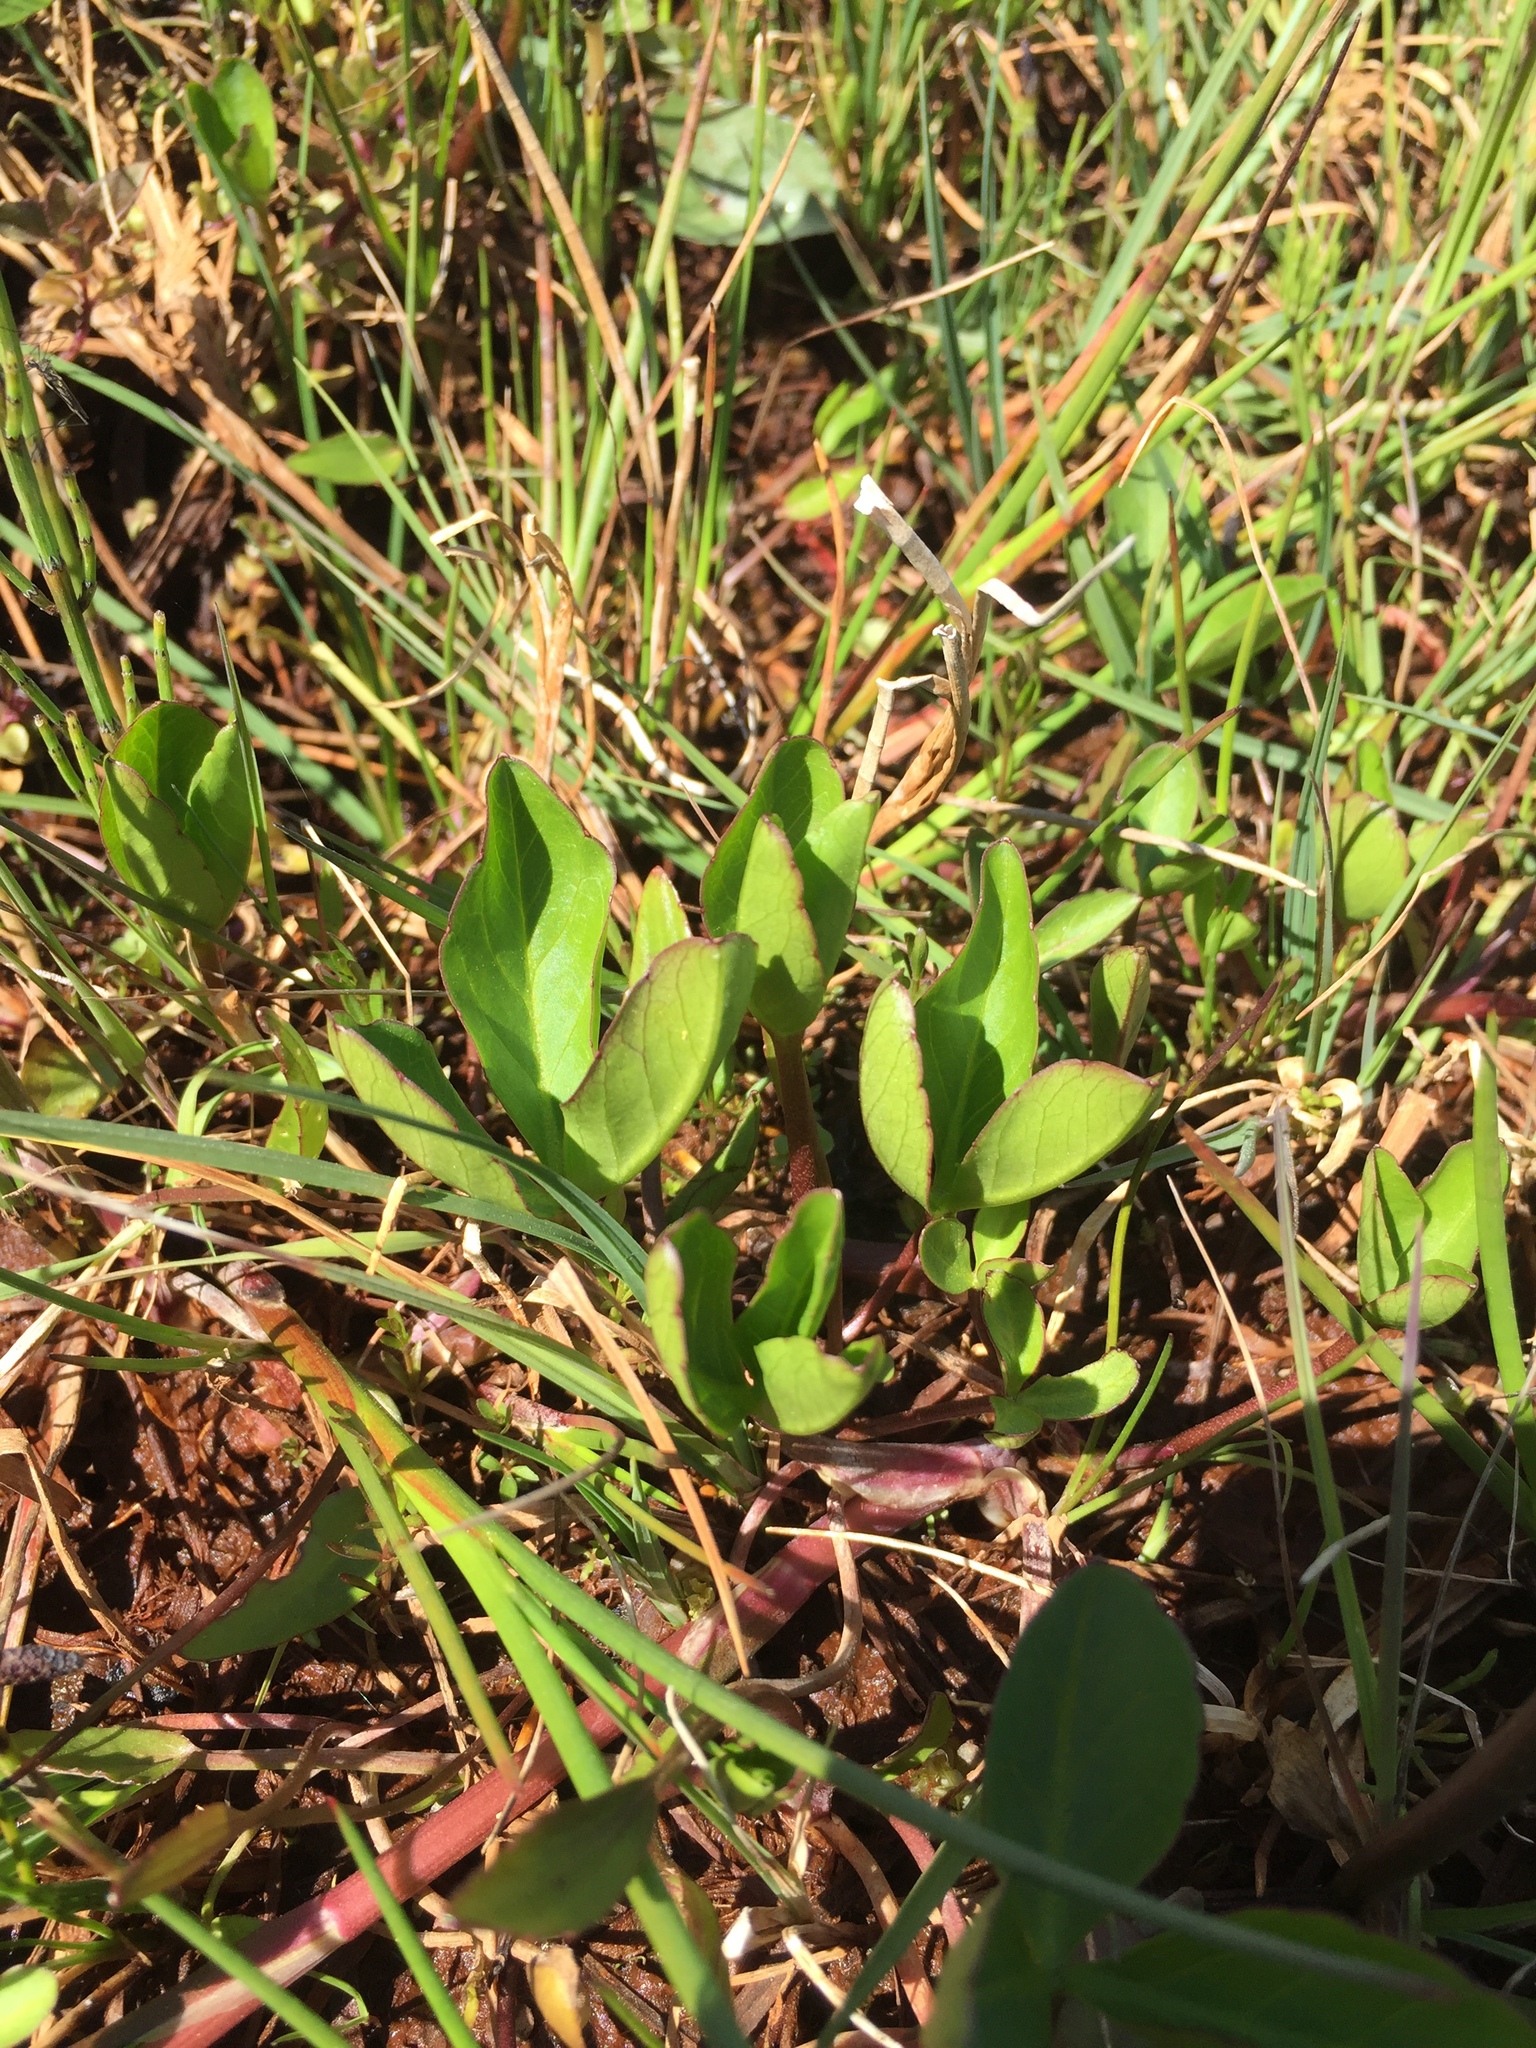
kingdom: Plantae
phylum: Tracheophyta
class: Magnoliopsida
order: Asterales
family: Menyanthaceae
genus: Menyanthes
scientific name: Menyanthes trifoliata
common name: Bogbean
